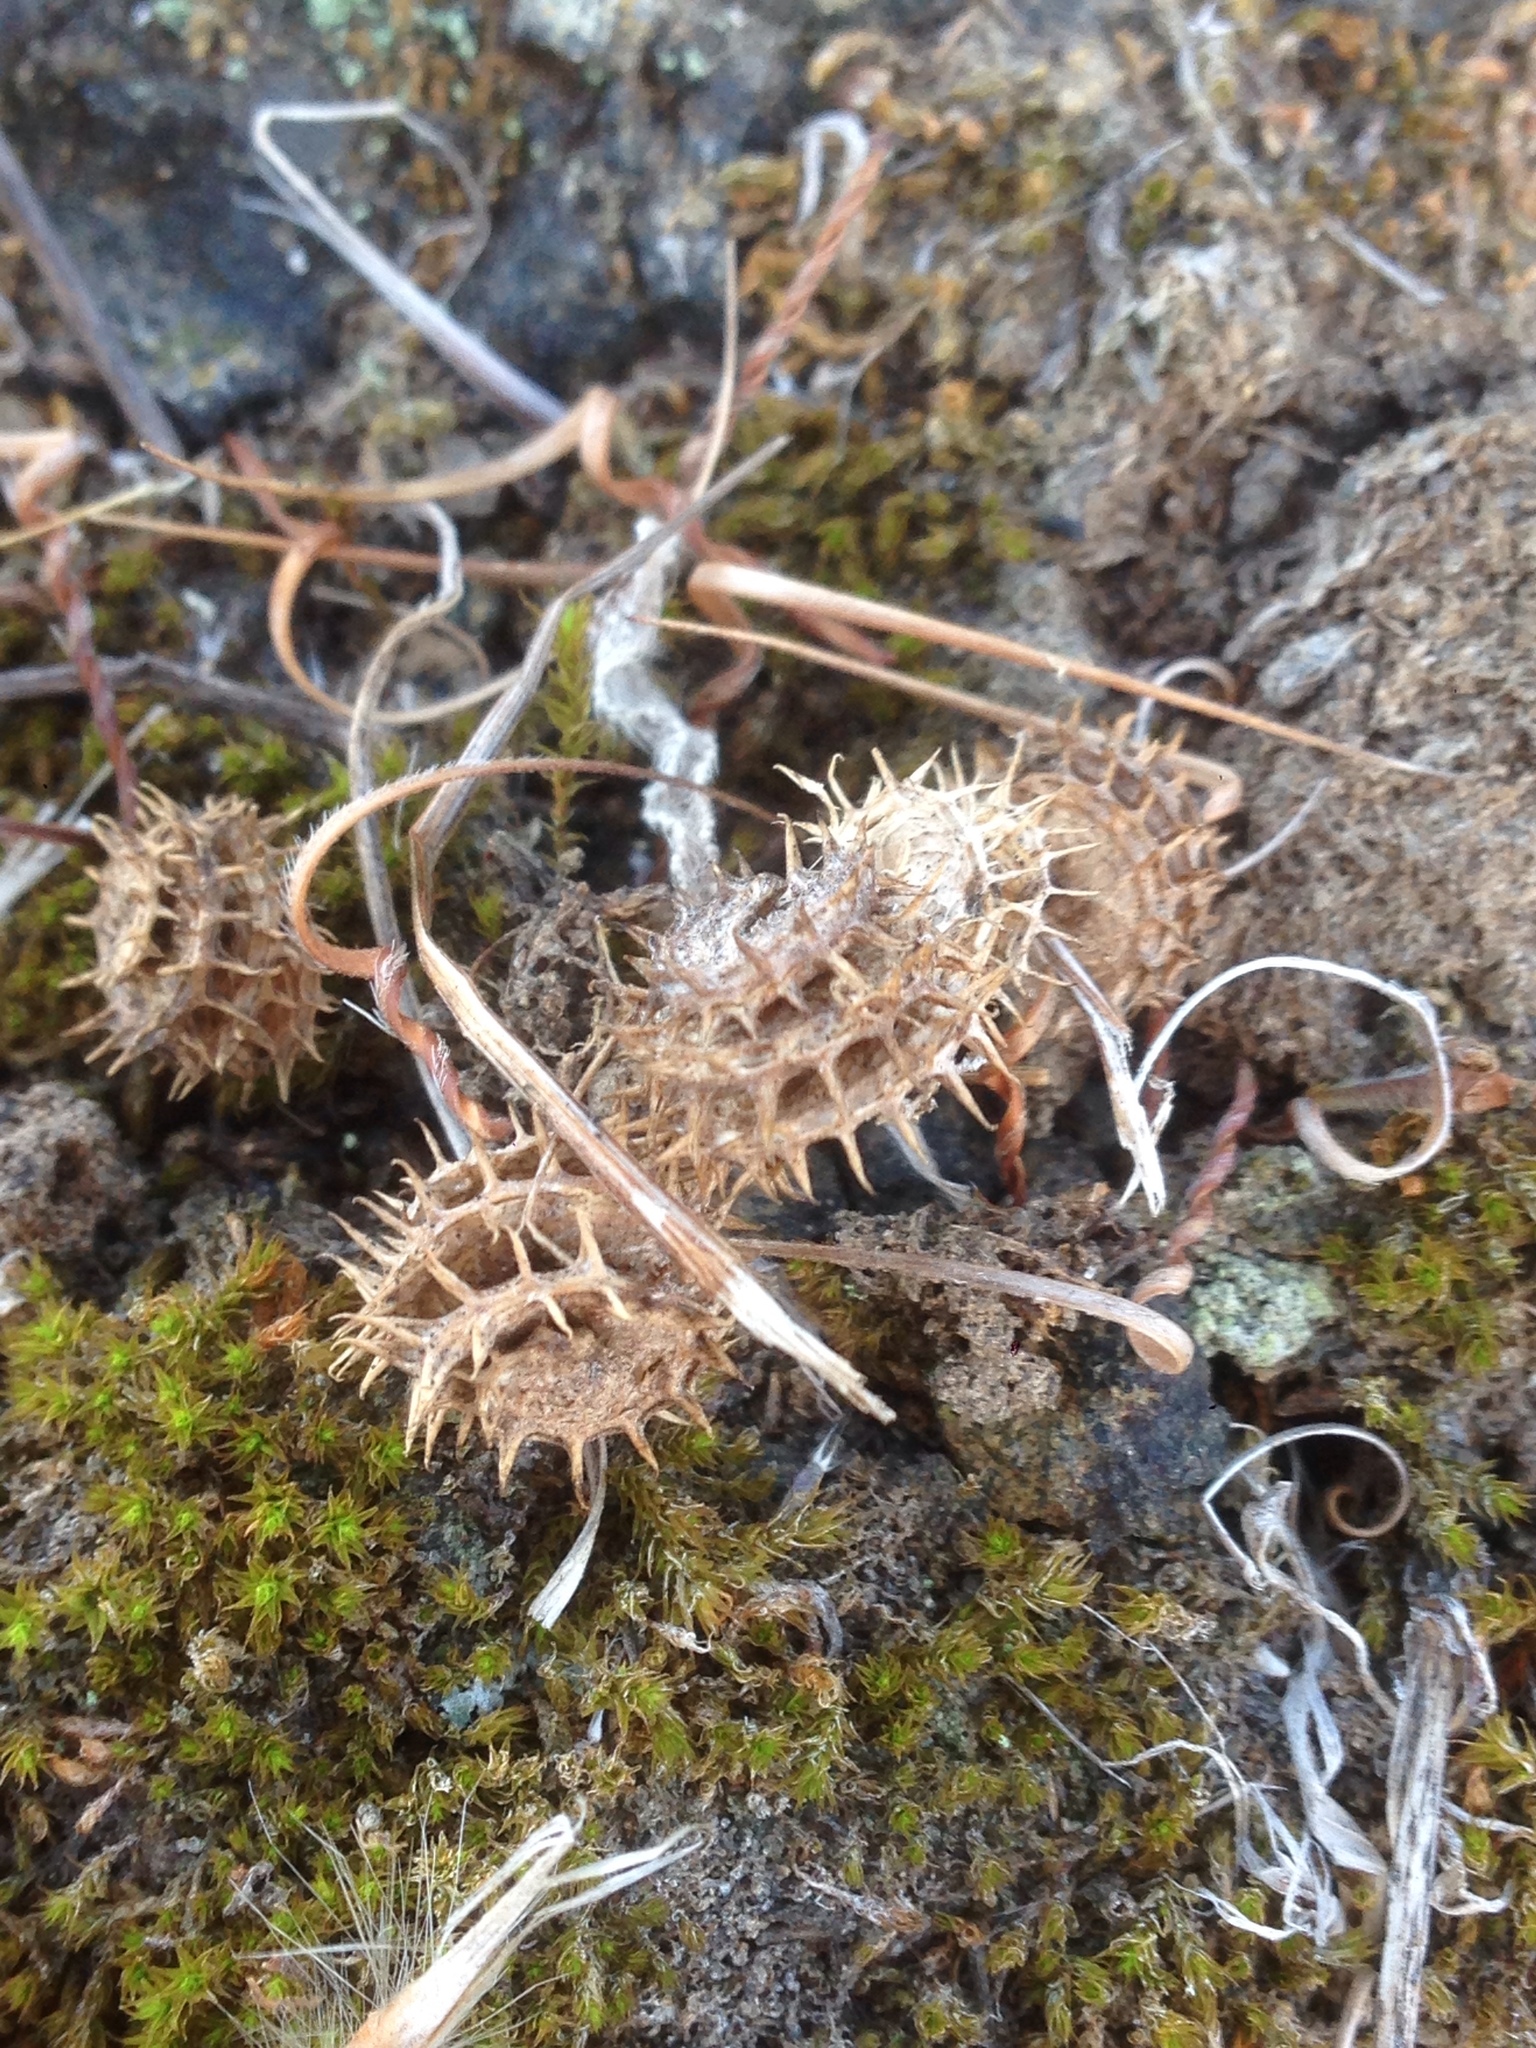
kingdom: Plantae
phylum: Tracheophyta
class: Magnoliopsida
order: Fabales
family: Fabaceae
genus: Medicago
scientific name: Medicago polymorpha
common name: Burclover
